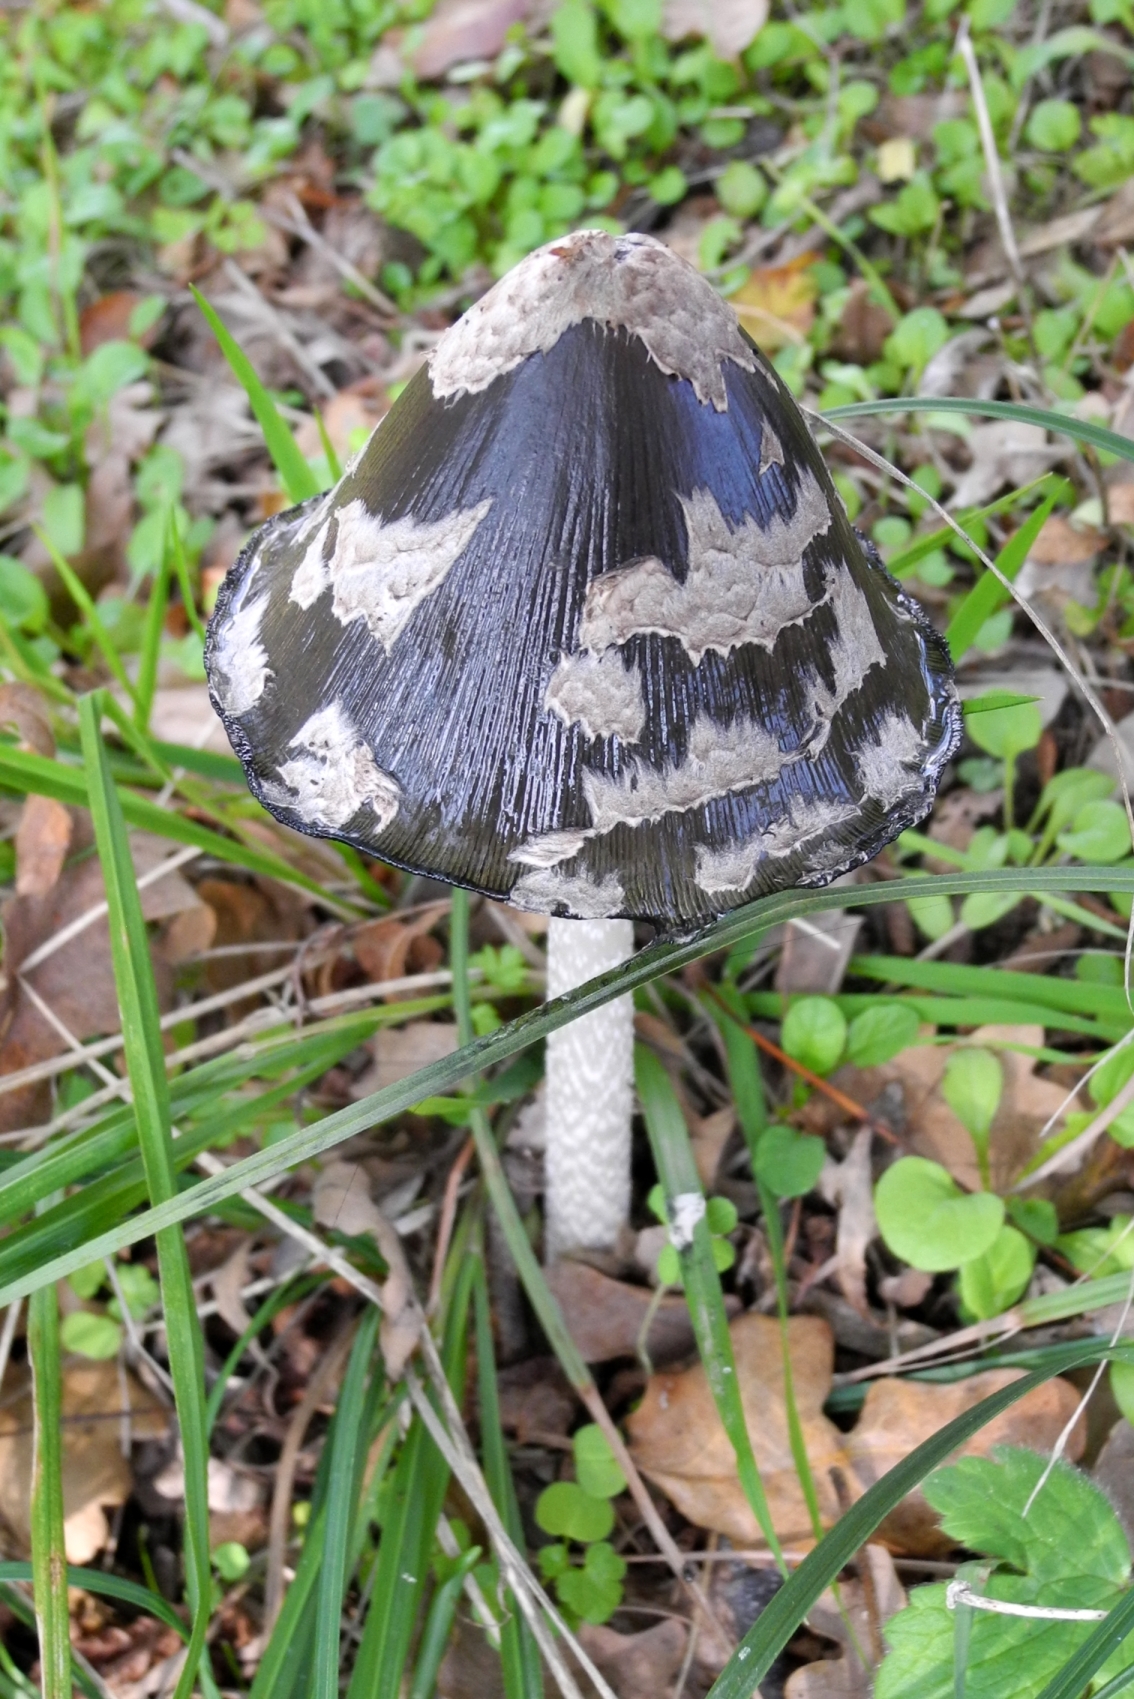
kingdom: Fungi
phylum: Basidiomycota
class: Agaricomycetes
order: Agaricales
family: Psathyrellaceae
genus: Coprinopsis
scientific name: Coprinopsis picacea
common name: Magpie inkcap
